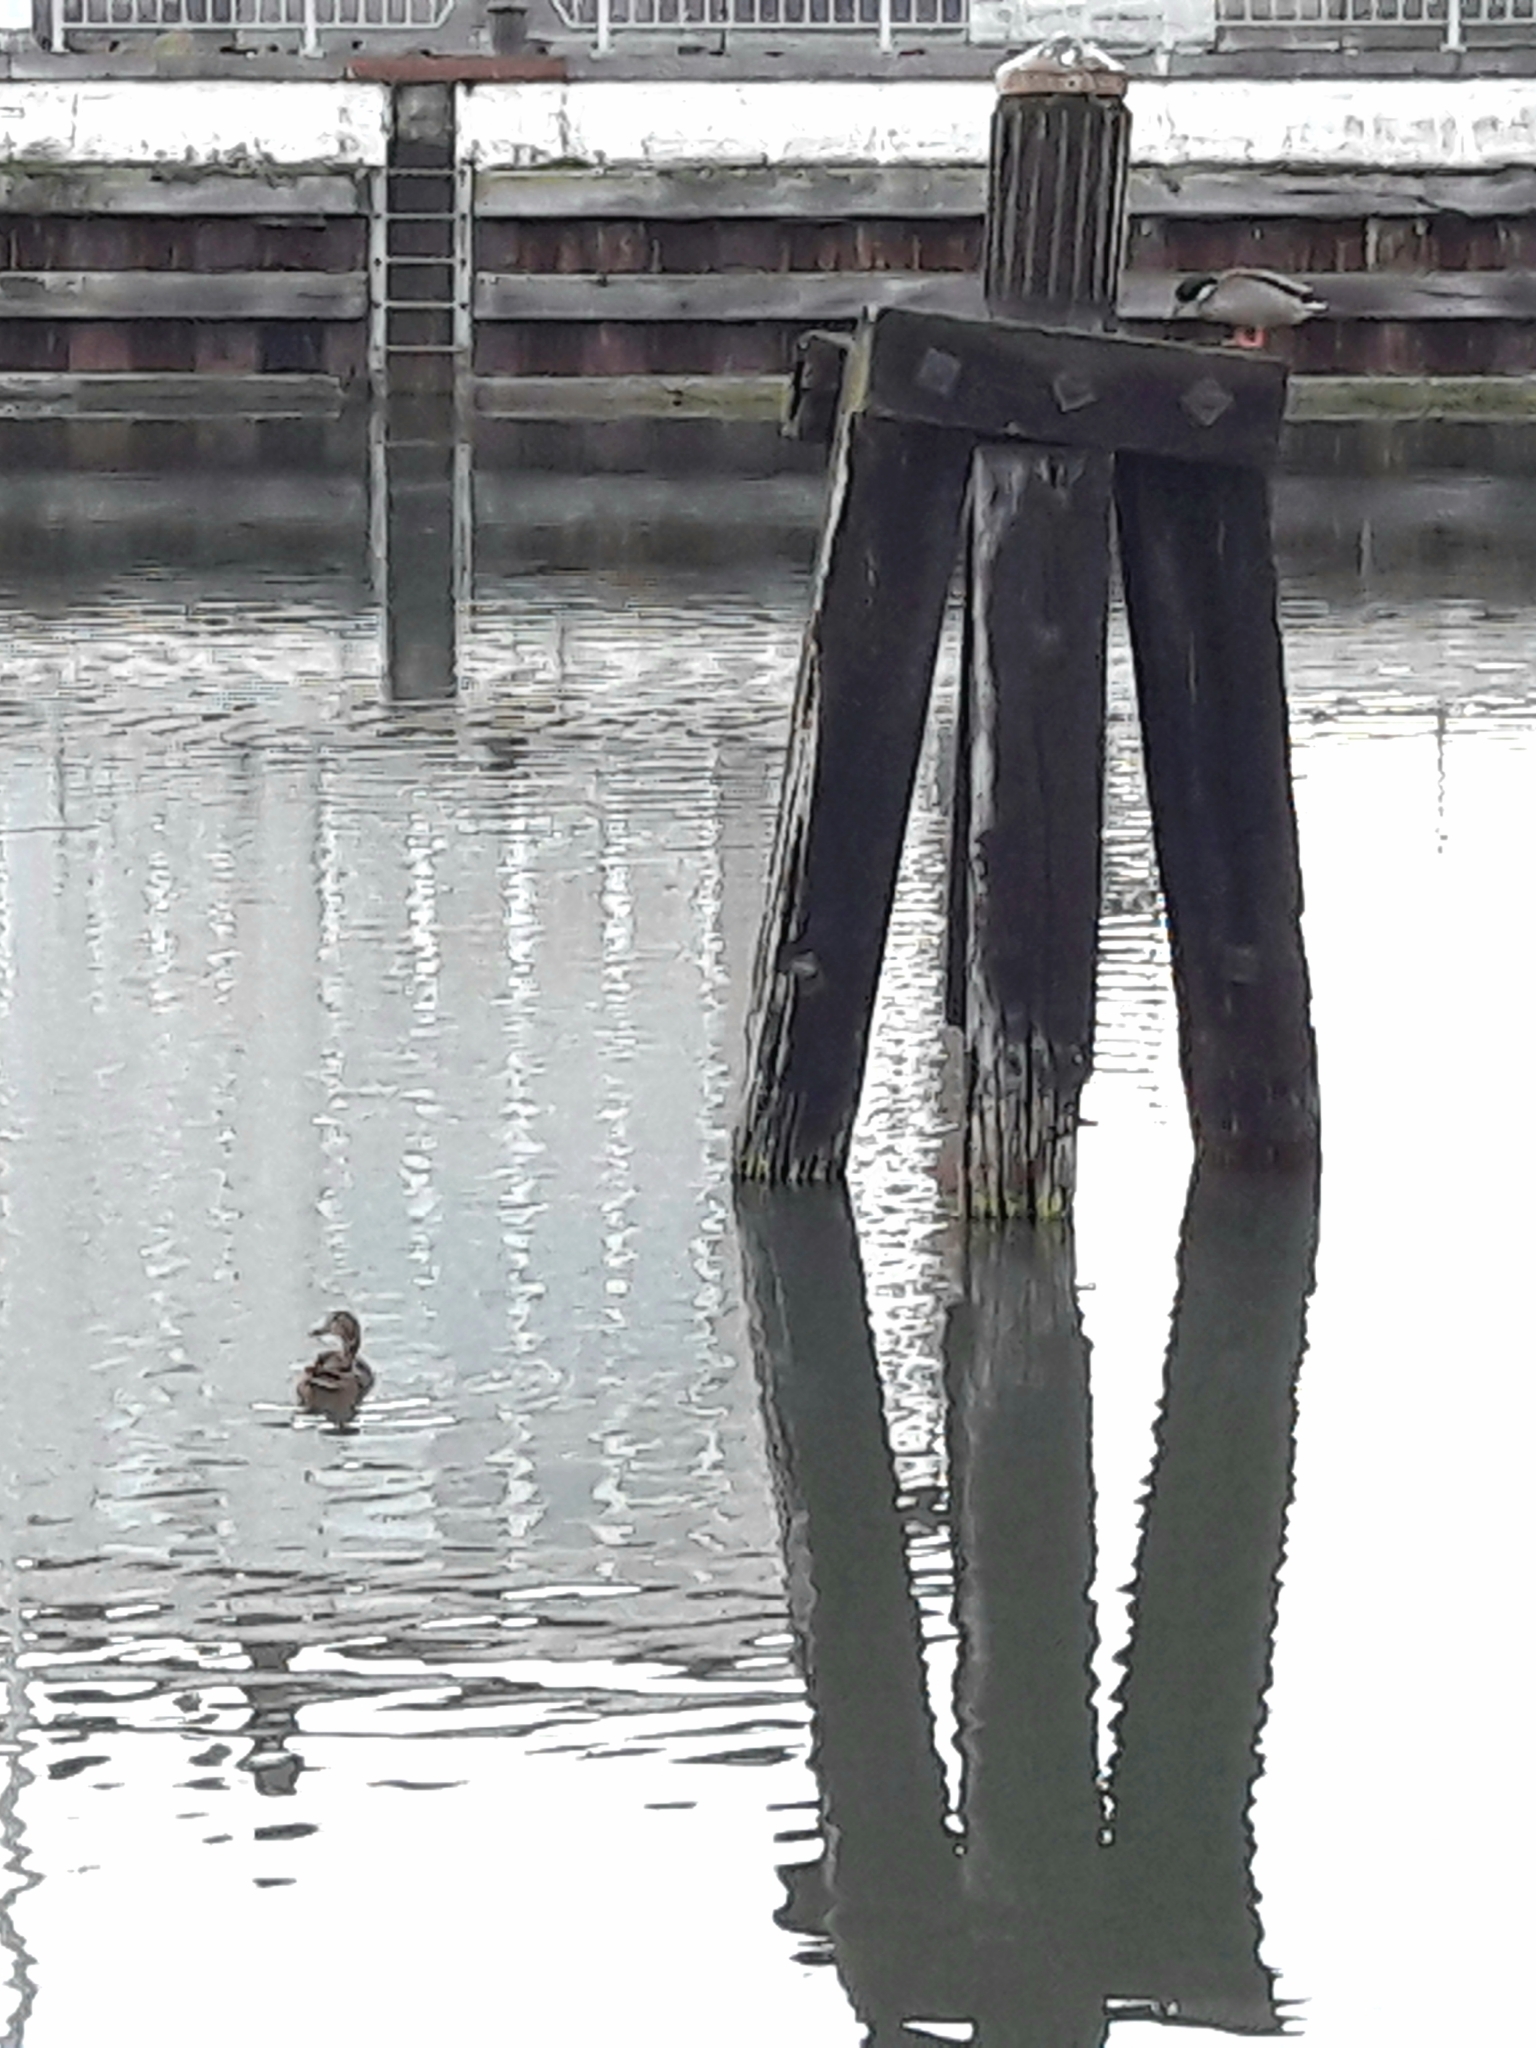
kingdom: Animalia
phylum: Chordata
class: Aves
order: Anseriformes
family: Anatidae
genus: Anas
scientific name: Anas platyrhynchos
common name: Mallard
